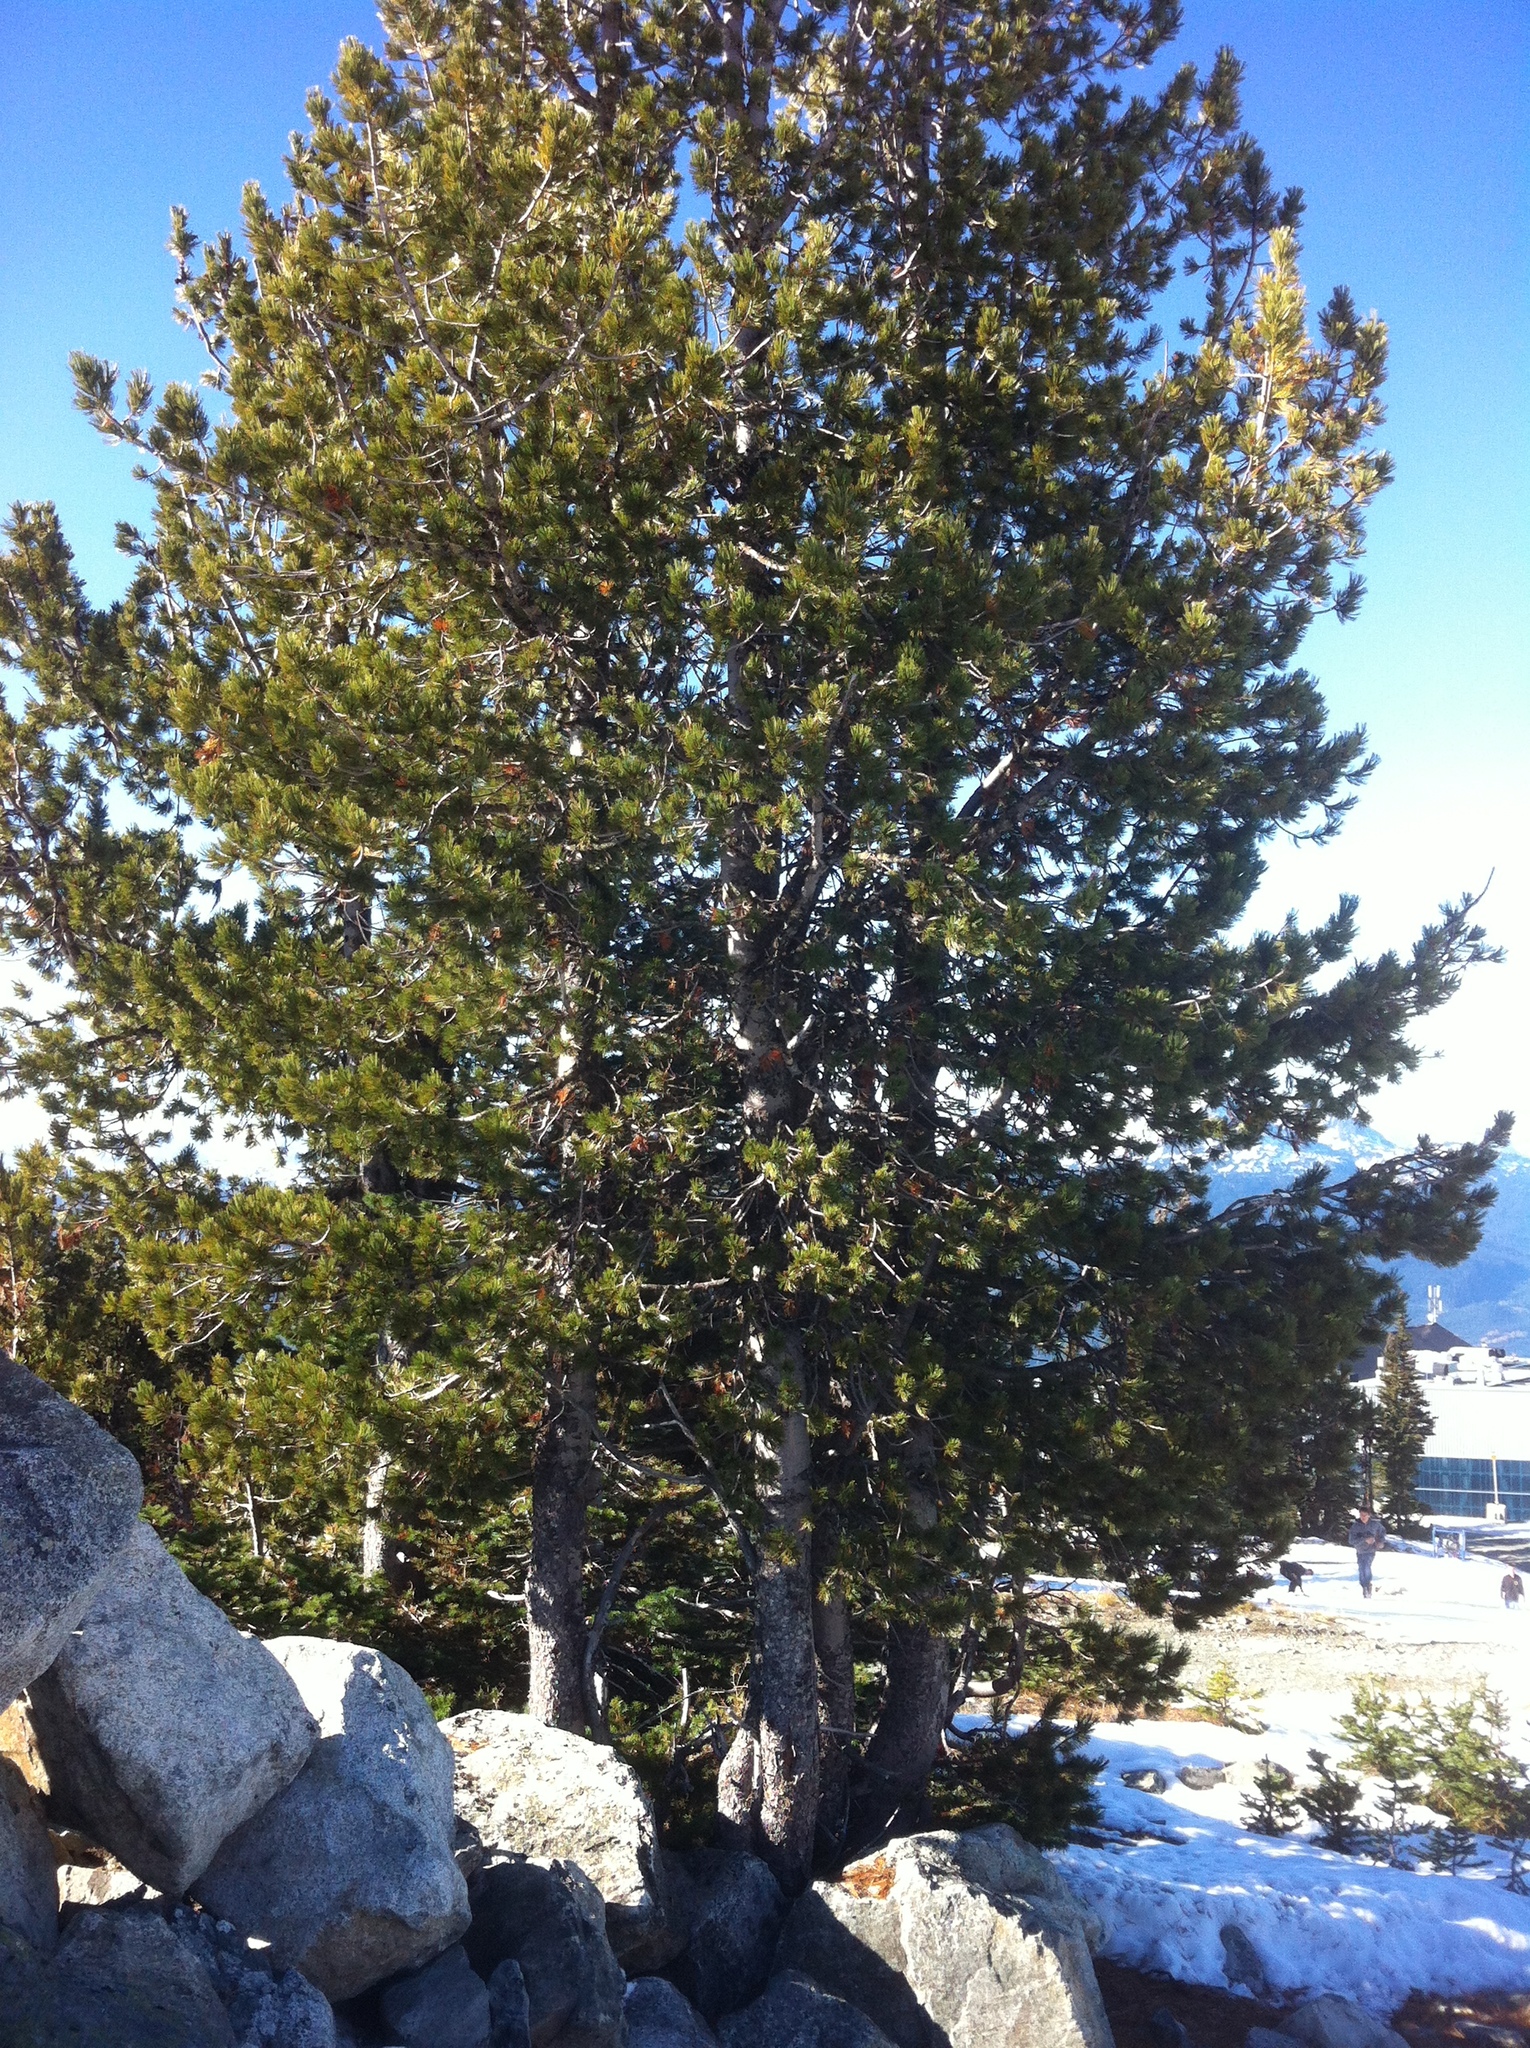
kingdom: Plantae
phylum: Tracheophyta
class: Pinopsida
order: Pinales
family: Pinaceae
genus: Pinus
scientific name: Pinus monticola
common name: Western white pine
